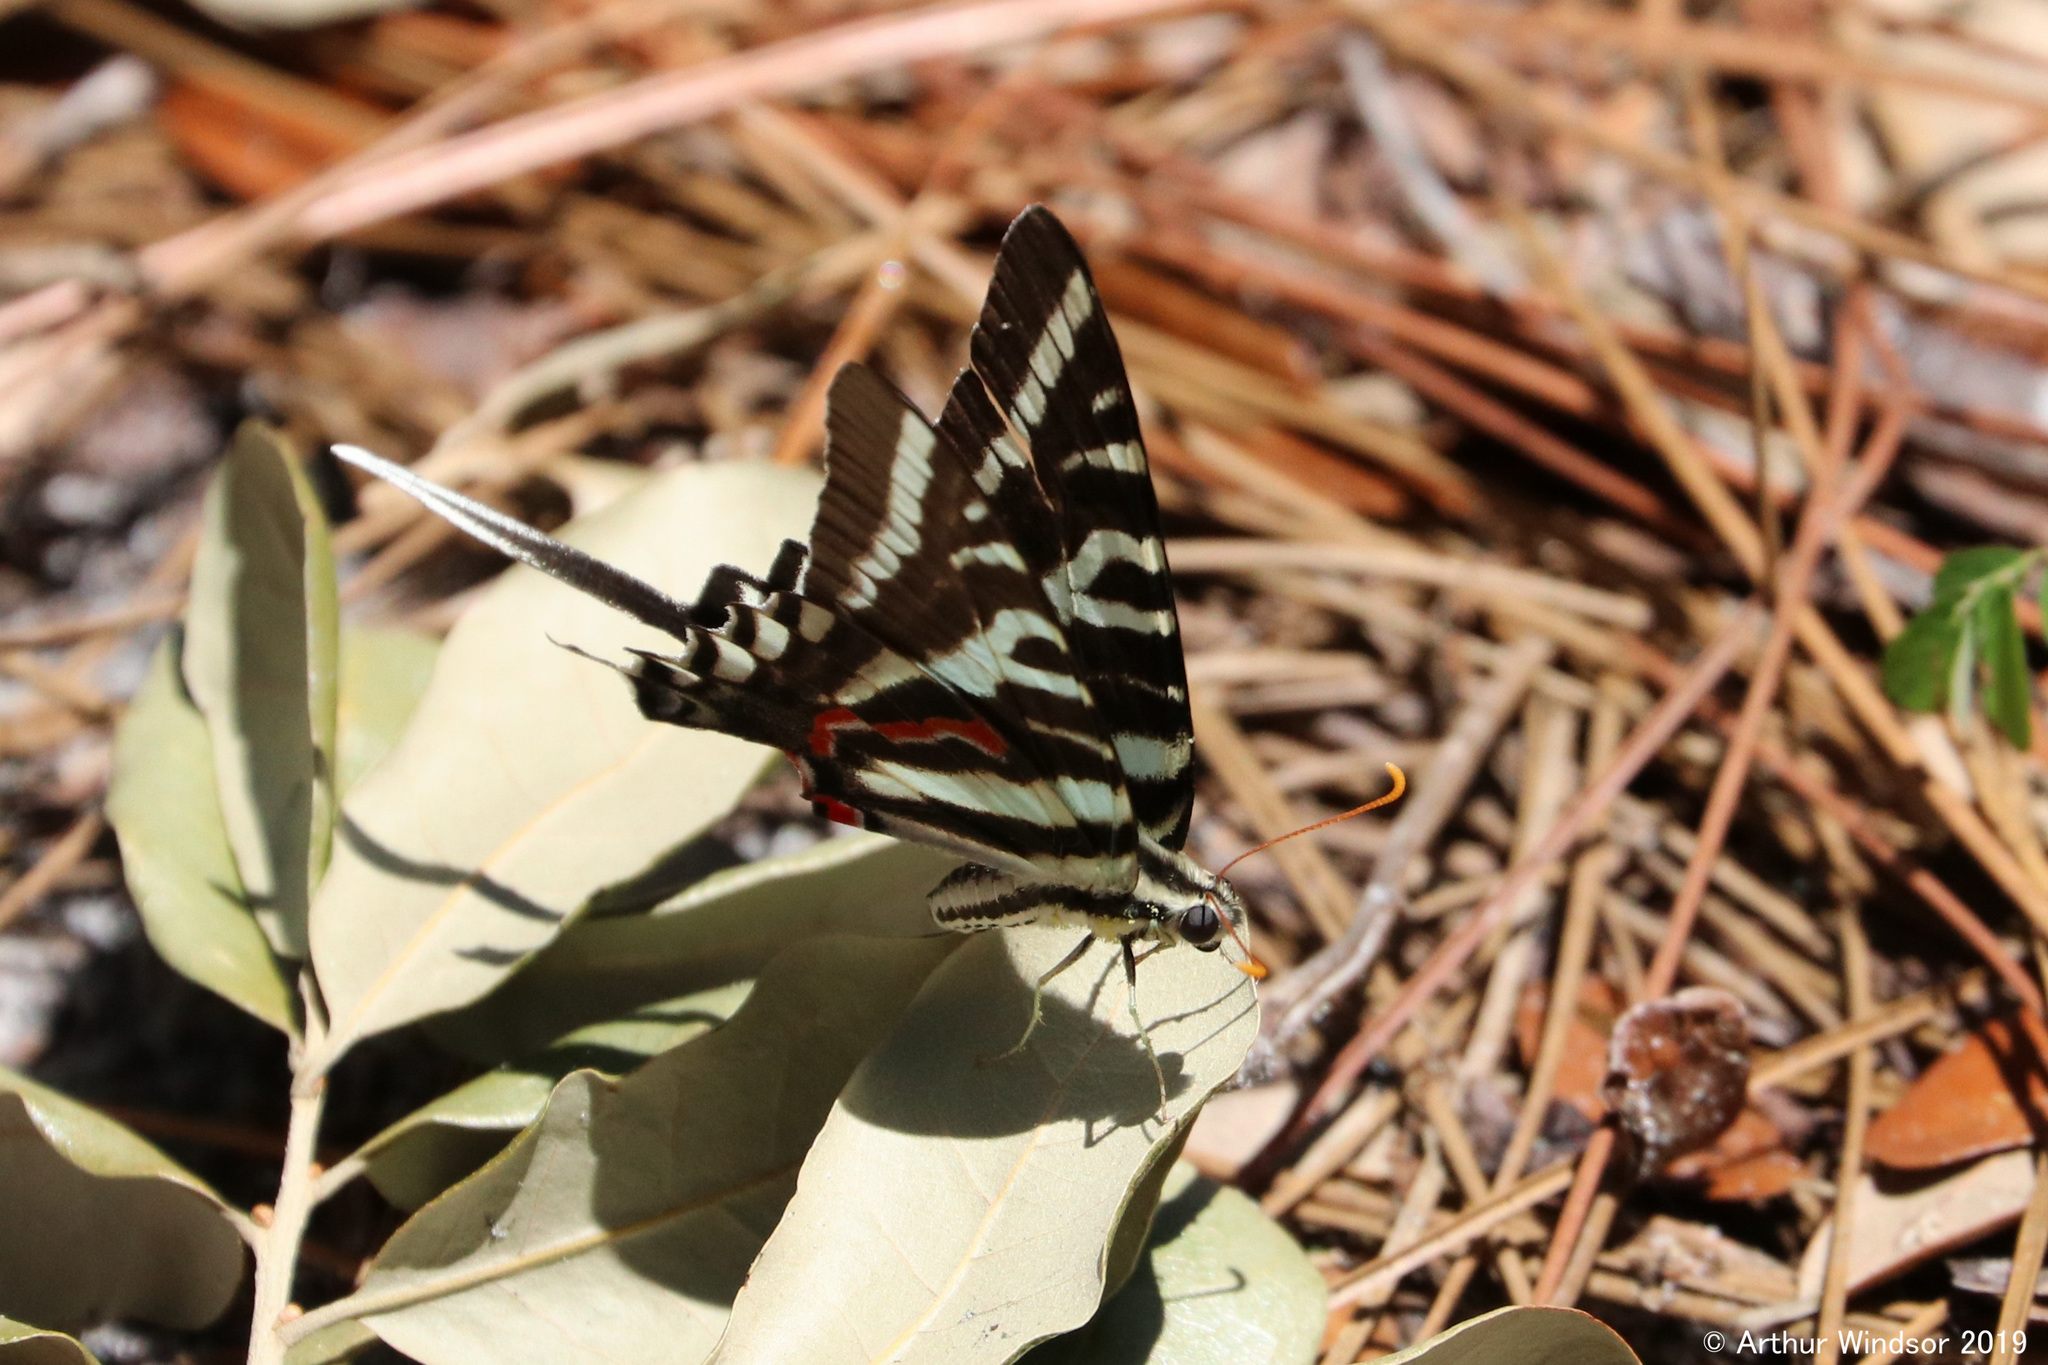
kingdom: Animalia
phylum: Arthropoda
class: Insecta
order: Lepidoptera
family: Papilionidae
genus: Protographium
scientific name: Protographium marcellus
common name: Zebra swallowtail
